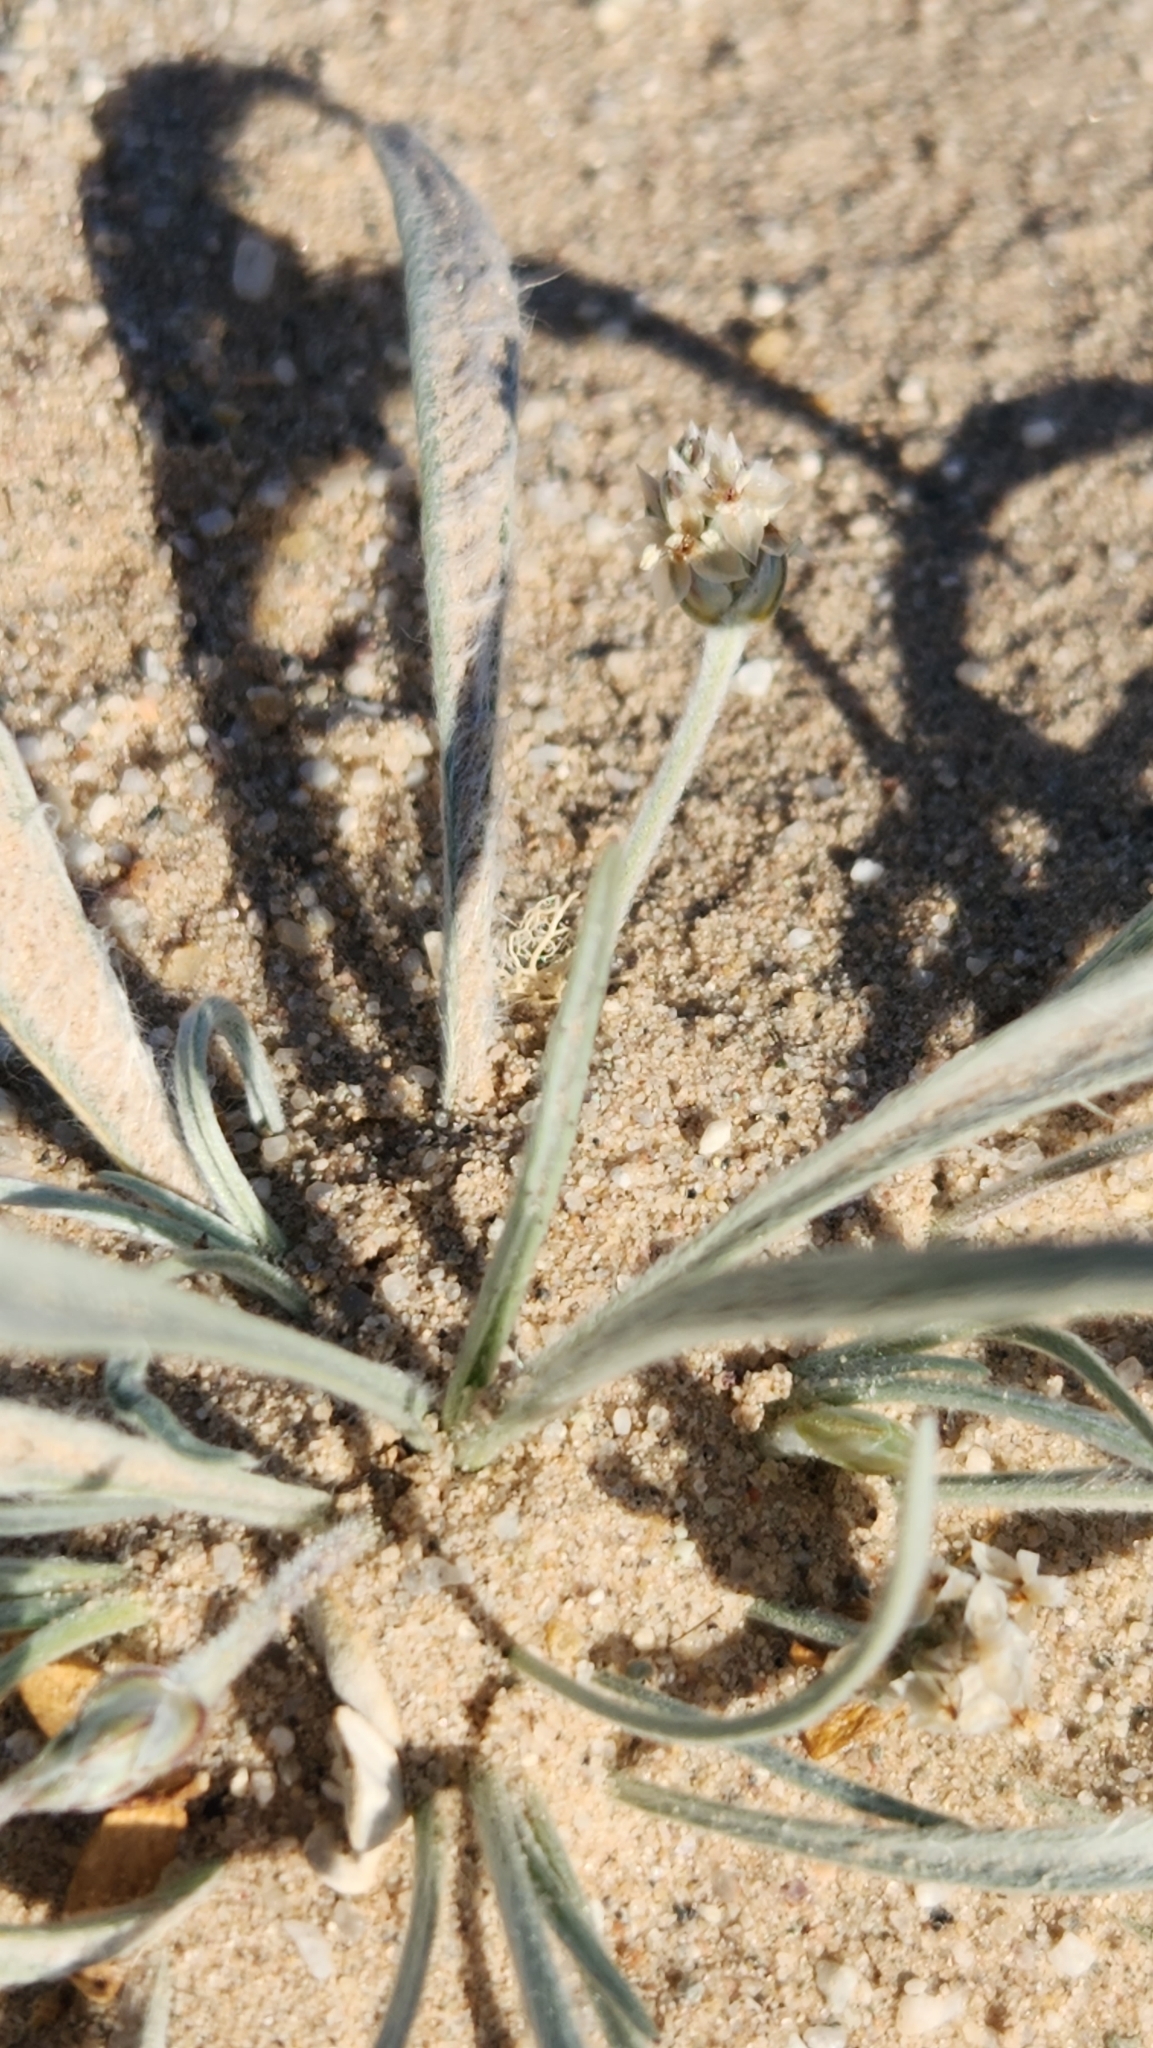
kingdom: Plantae
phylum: Tracheophyta
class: Magnoliopsida
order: Lamiales
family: Plantaginaceae
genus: Plantago
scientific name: Plantago ovata
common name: Blond plantain
